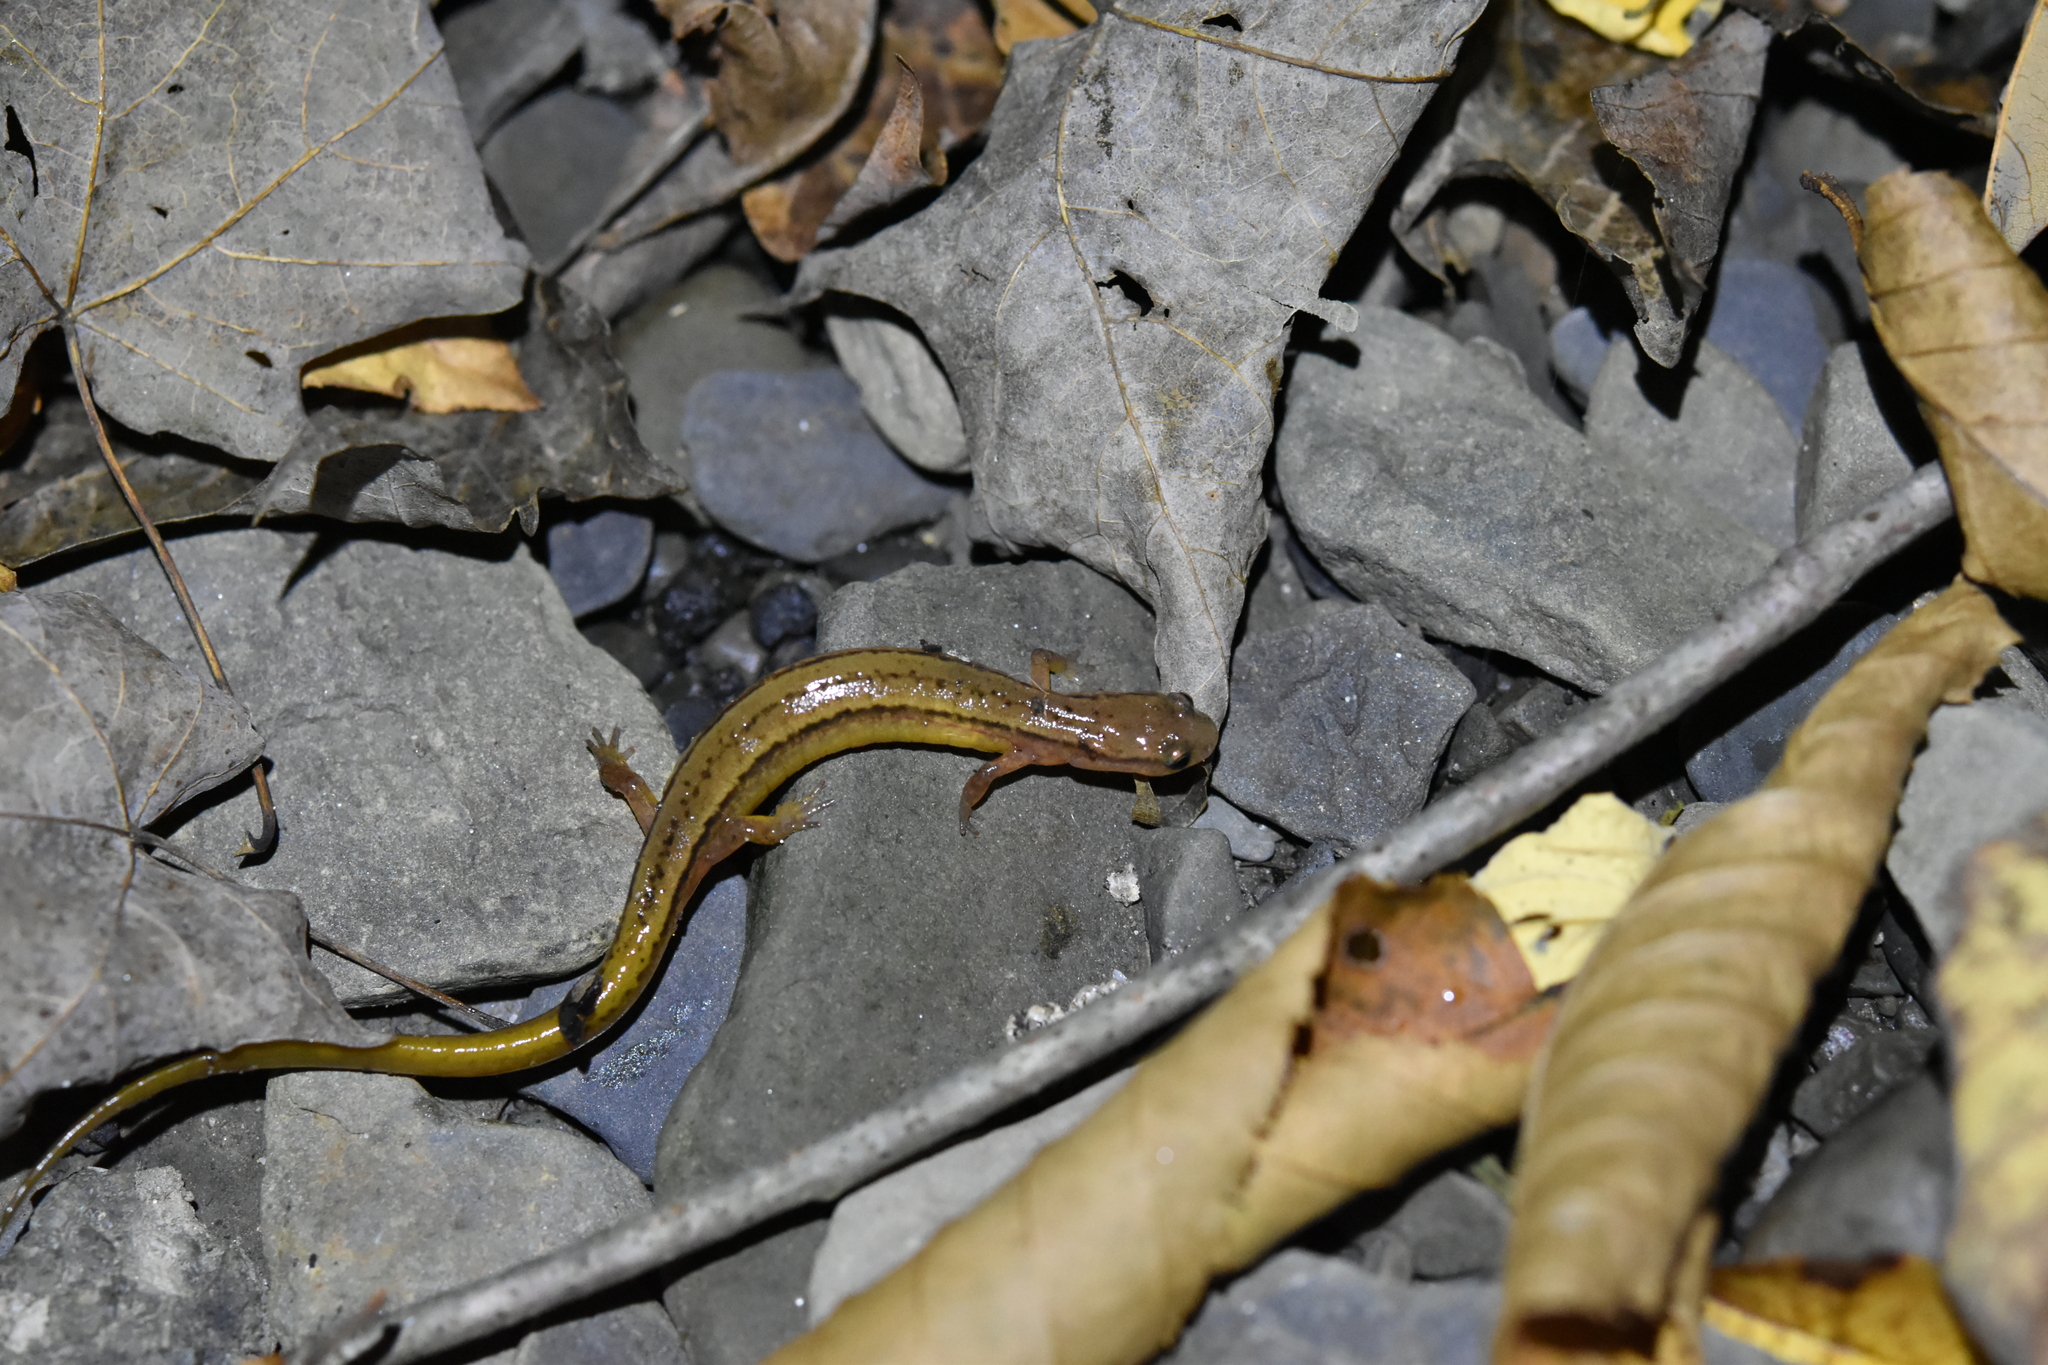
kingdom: Animalia
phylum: Chordata
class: Amphibia
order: Caudata
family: Plethodontidae
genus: Eurycea
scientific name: Eurycea bislineata
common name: Northern two-lined salamander
